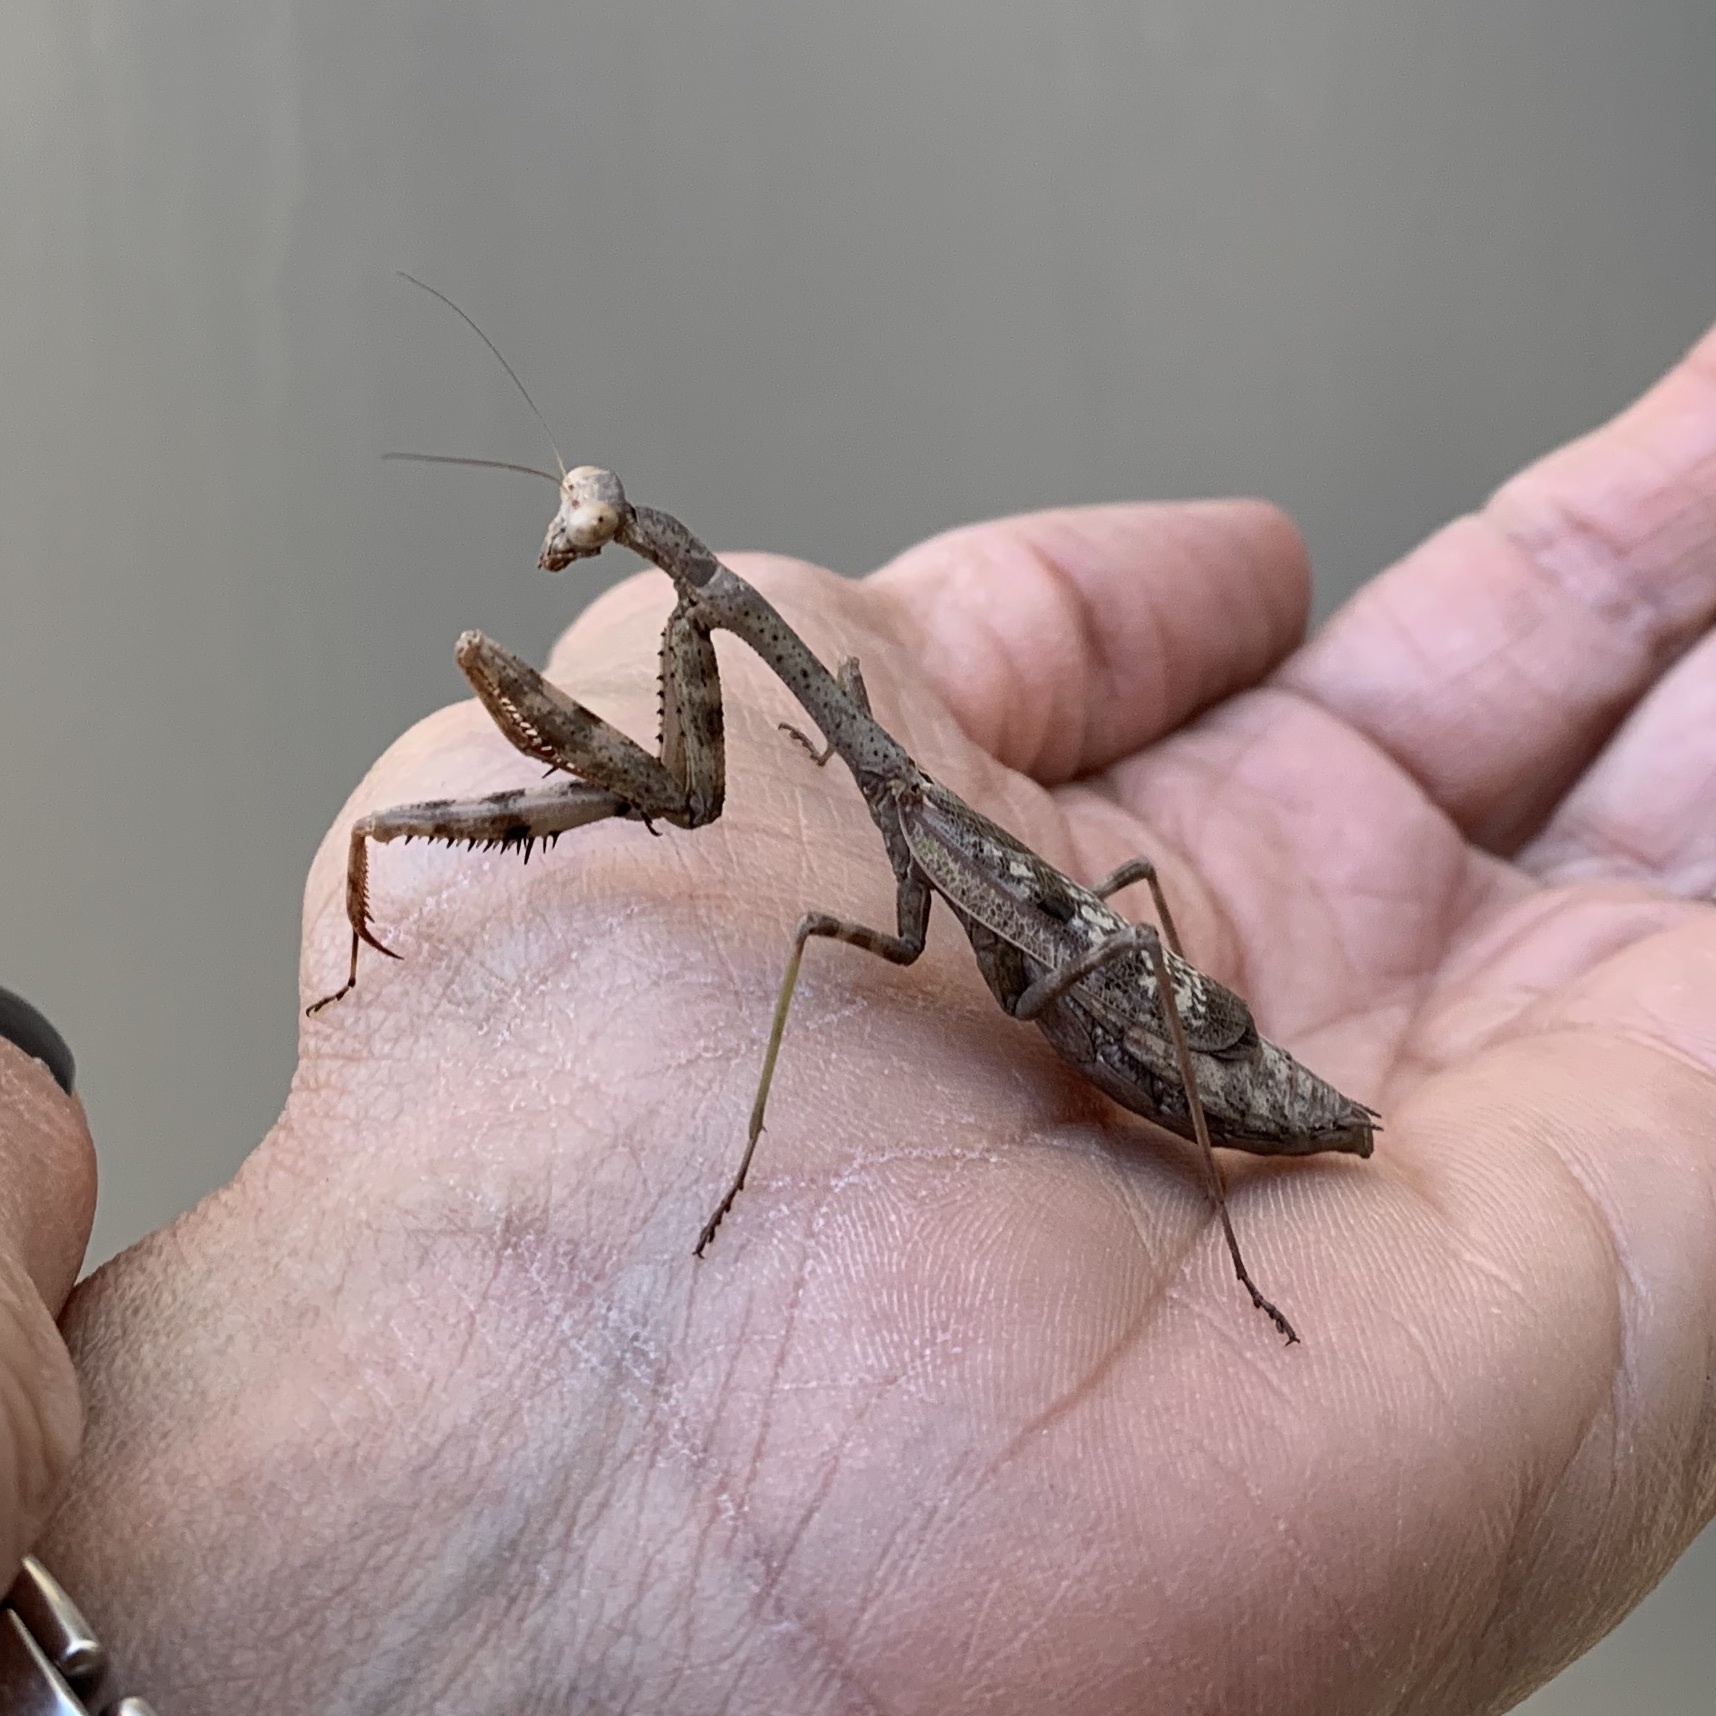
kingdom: Animalia
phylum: Arthropoda
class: Insecta
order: Mantodea
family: Mantidae
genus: Stagmomantis
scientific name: Stagmomantis carolina
